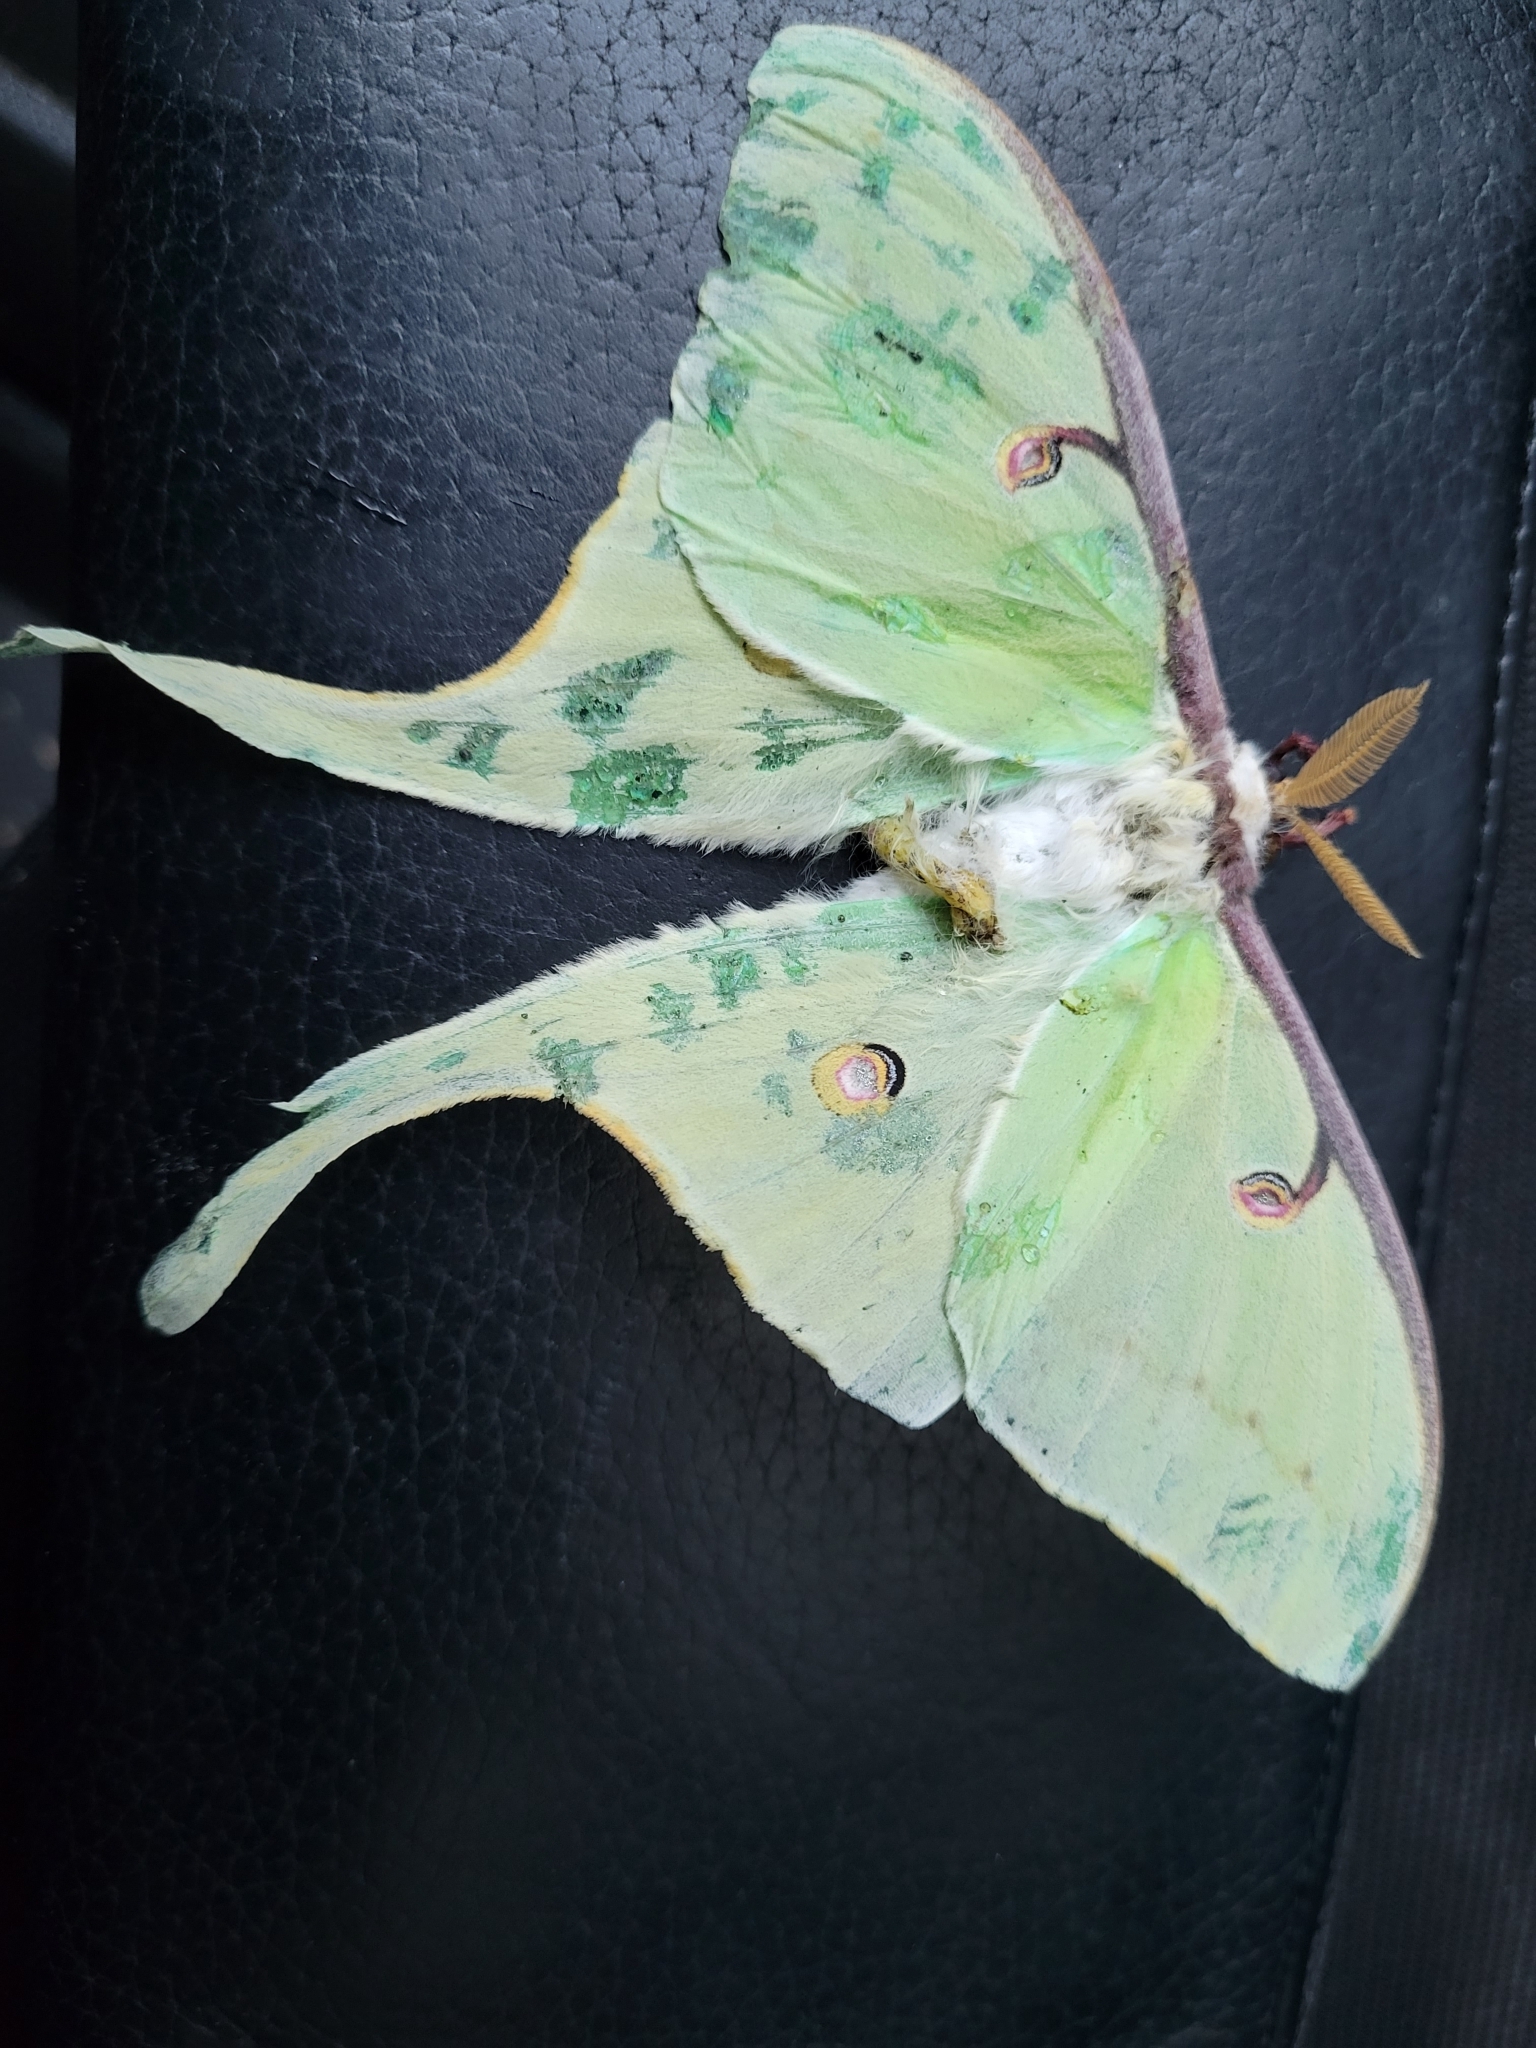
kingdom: Animalia
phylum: Arthropoda
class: Insecta
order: Lepidoptera
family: Saturniidae
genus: Actias
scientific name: Actias luna
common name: Luna moth
